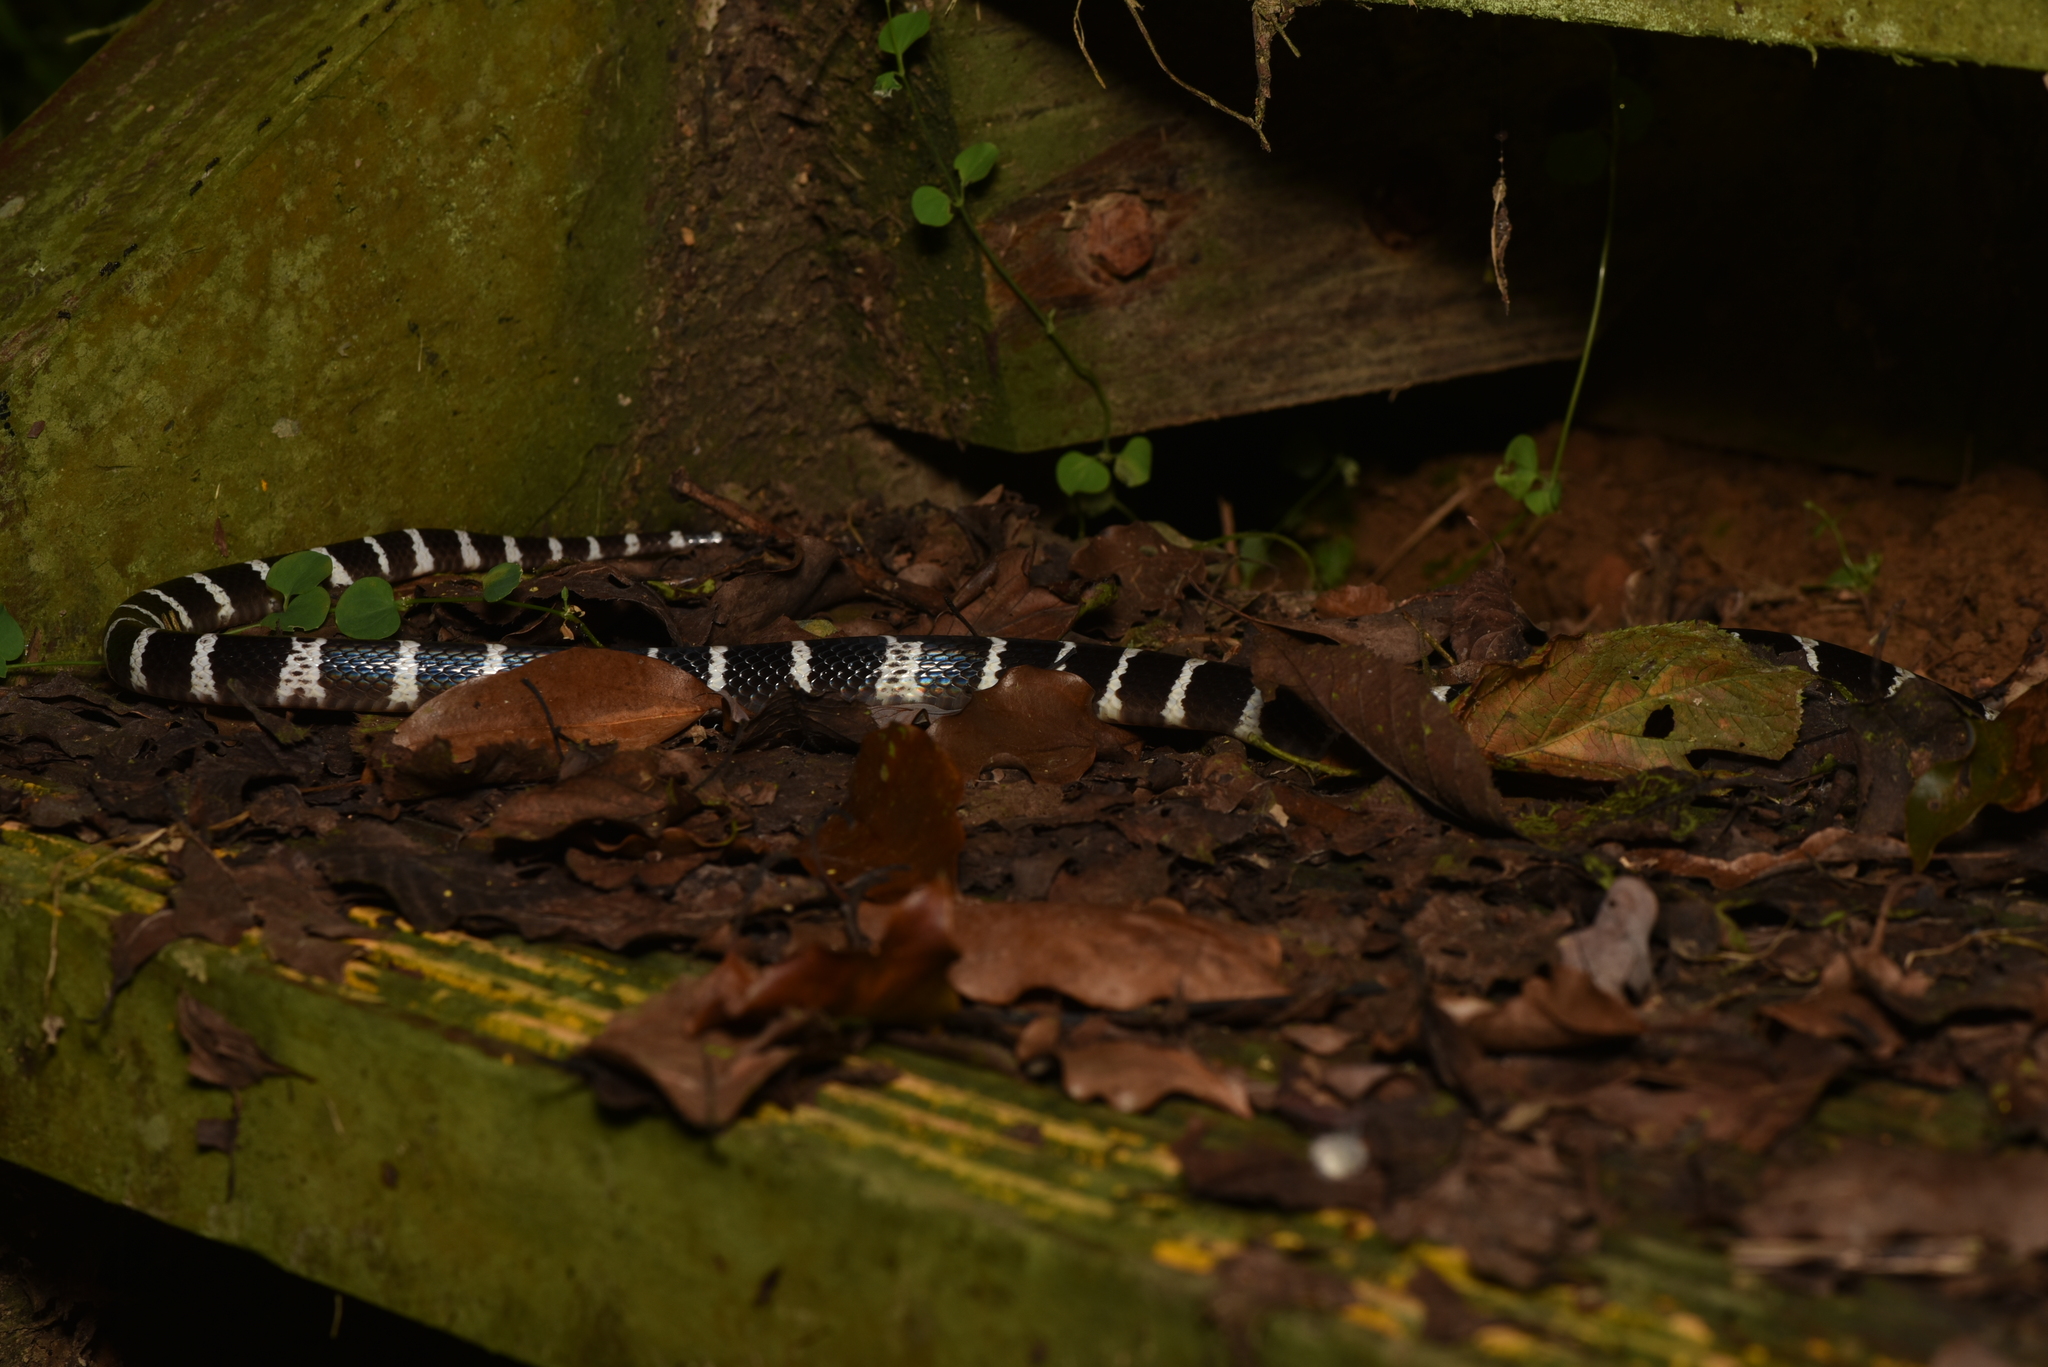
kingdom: Animalia
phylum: Chordata
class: Squamata
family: Elapidae
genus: Bungarus
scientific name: Bungarus multicinctus
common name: Many-banded krait
